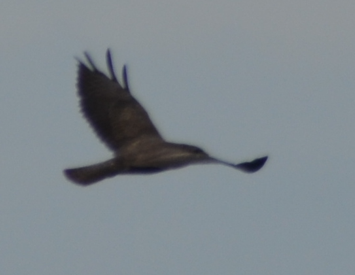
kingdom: Animalia
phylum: Chordata
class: Aves
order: Accipitriformes
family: Accipitridae
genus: Buteo
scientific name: Buteo buteo
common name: Common buzzard
